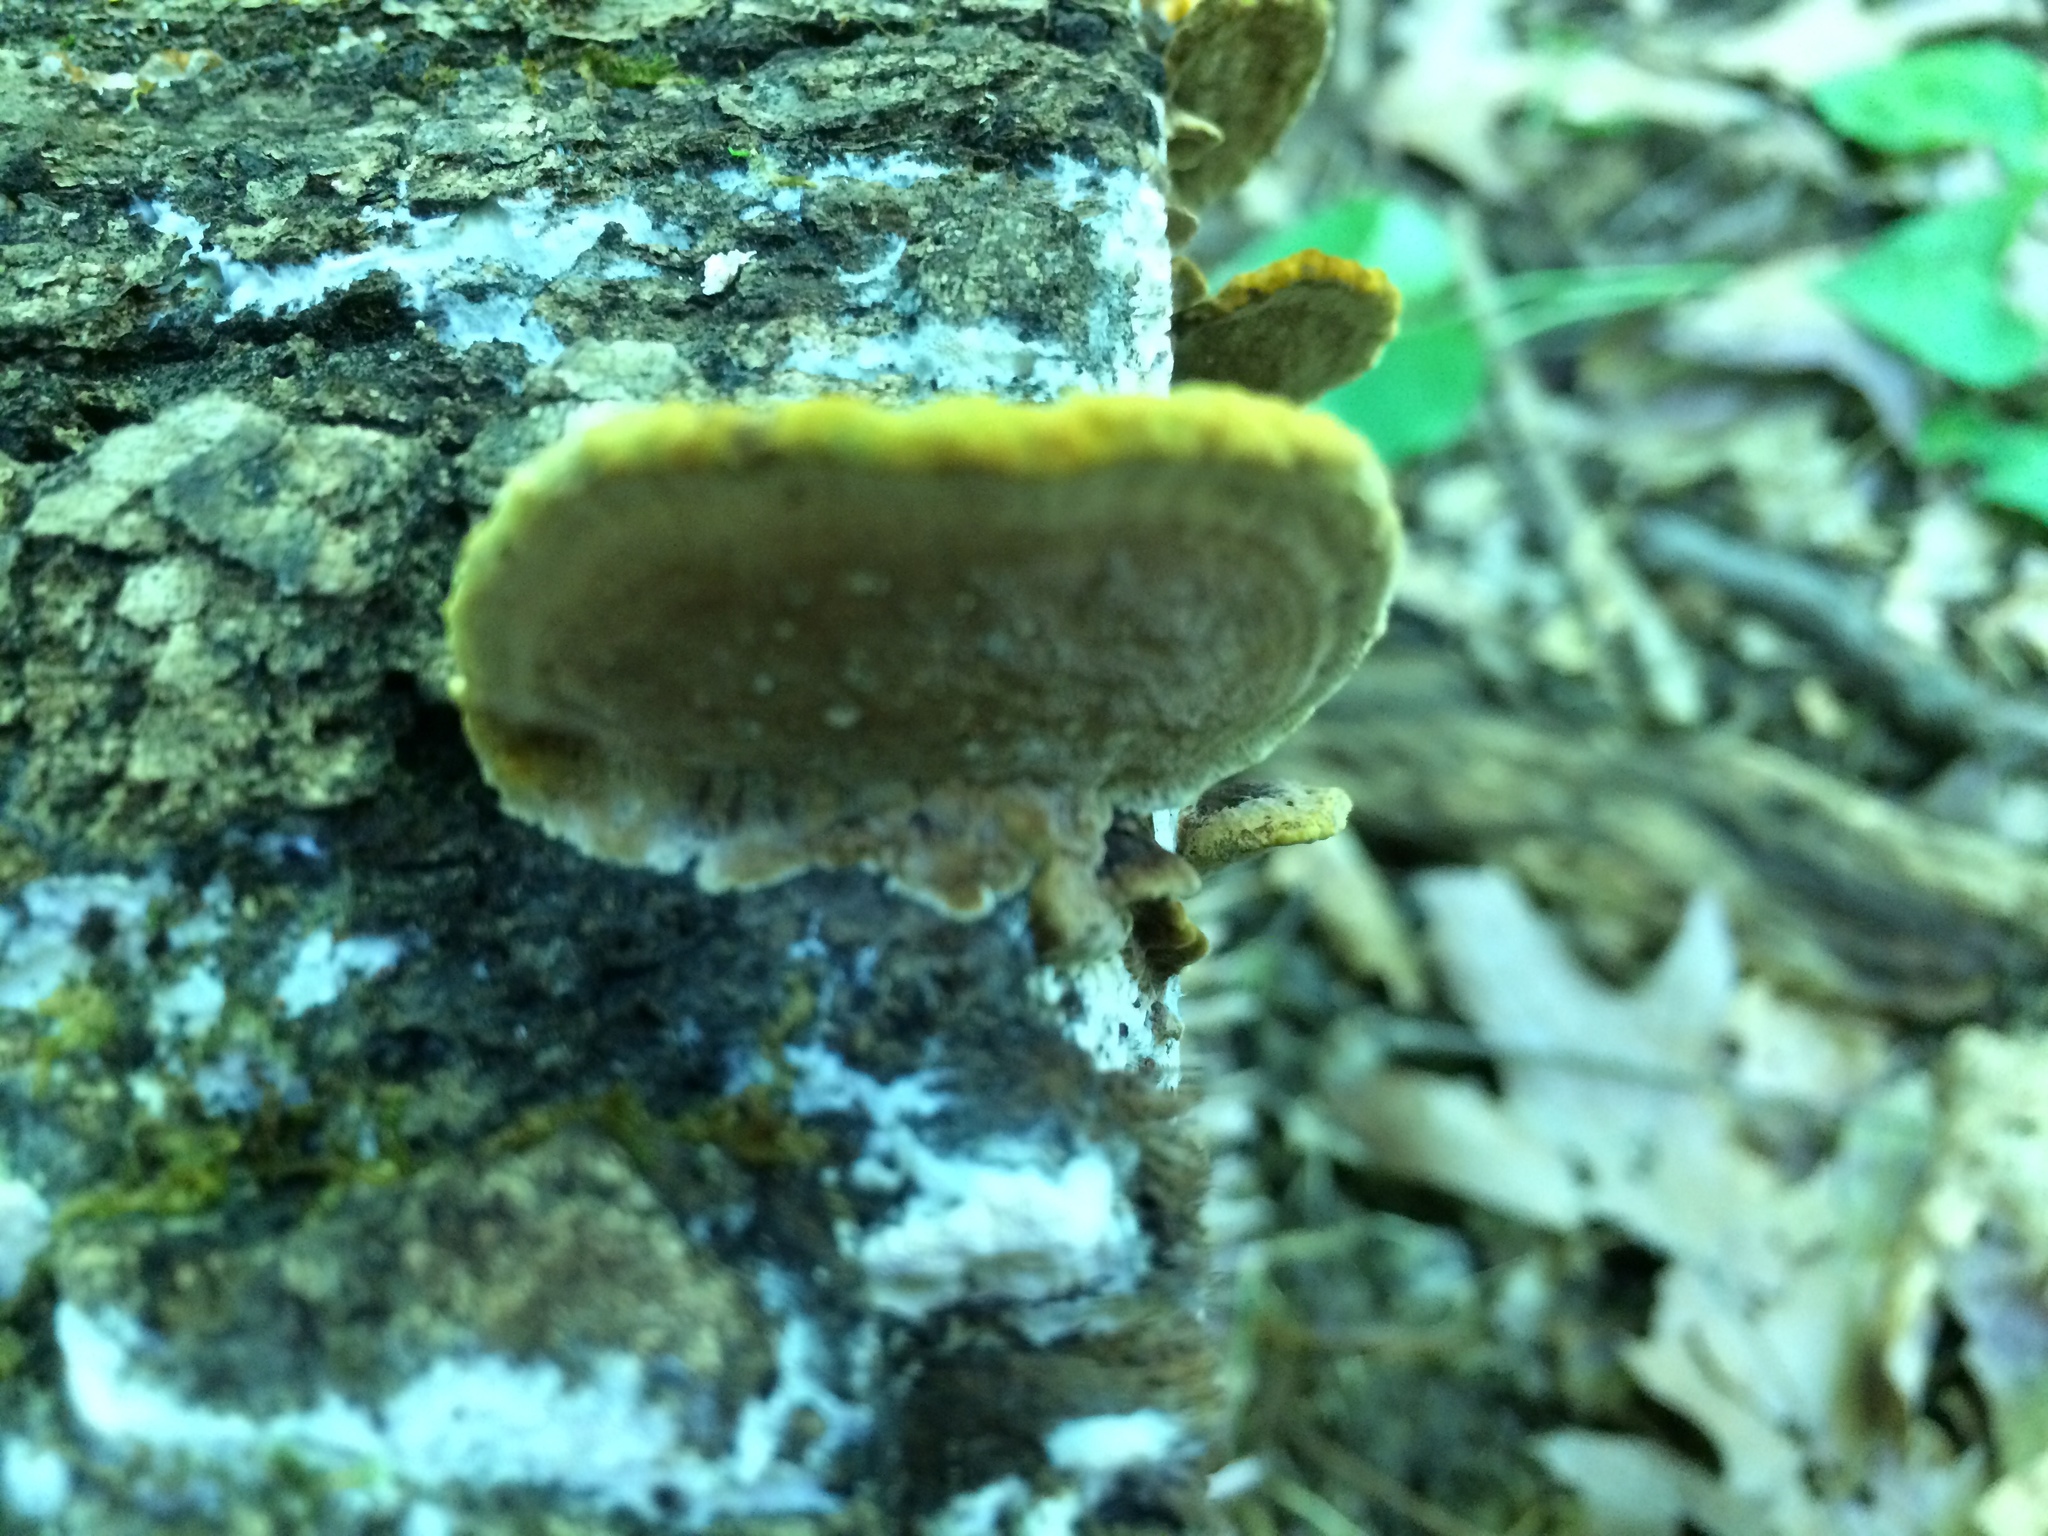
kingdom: Fungi
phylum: Basidiomycota
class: Agaricomycetes
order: Hymenochaetales
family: Hymenochaetaceae
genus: Phellinus
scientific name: Phellinus gilvus
